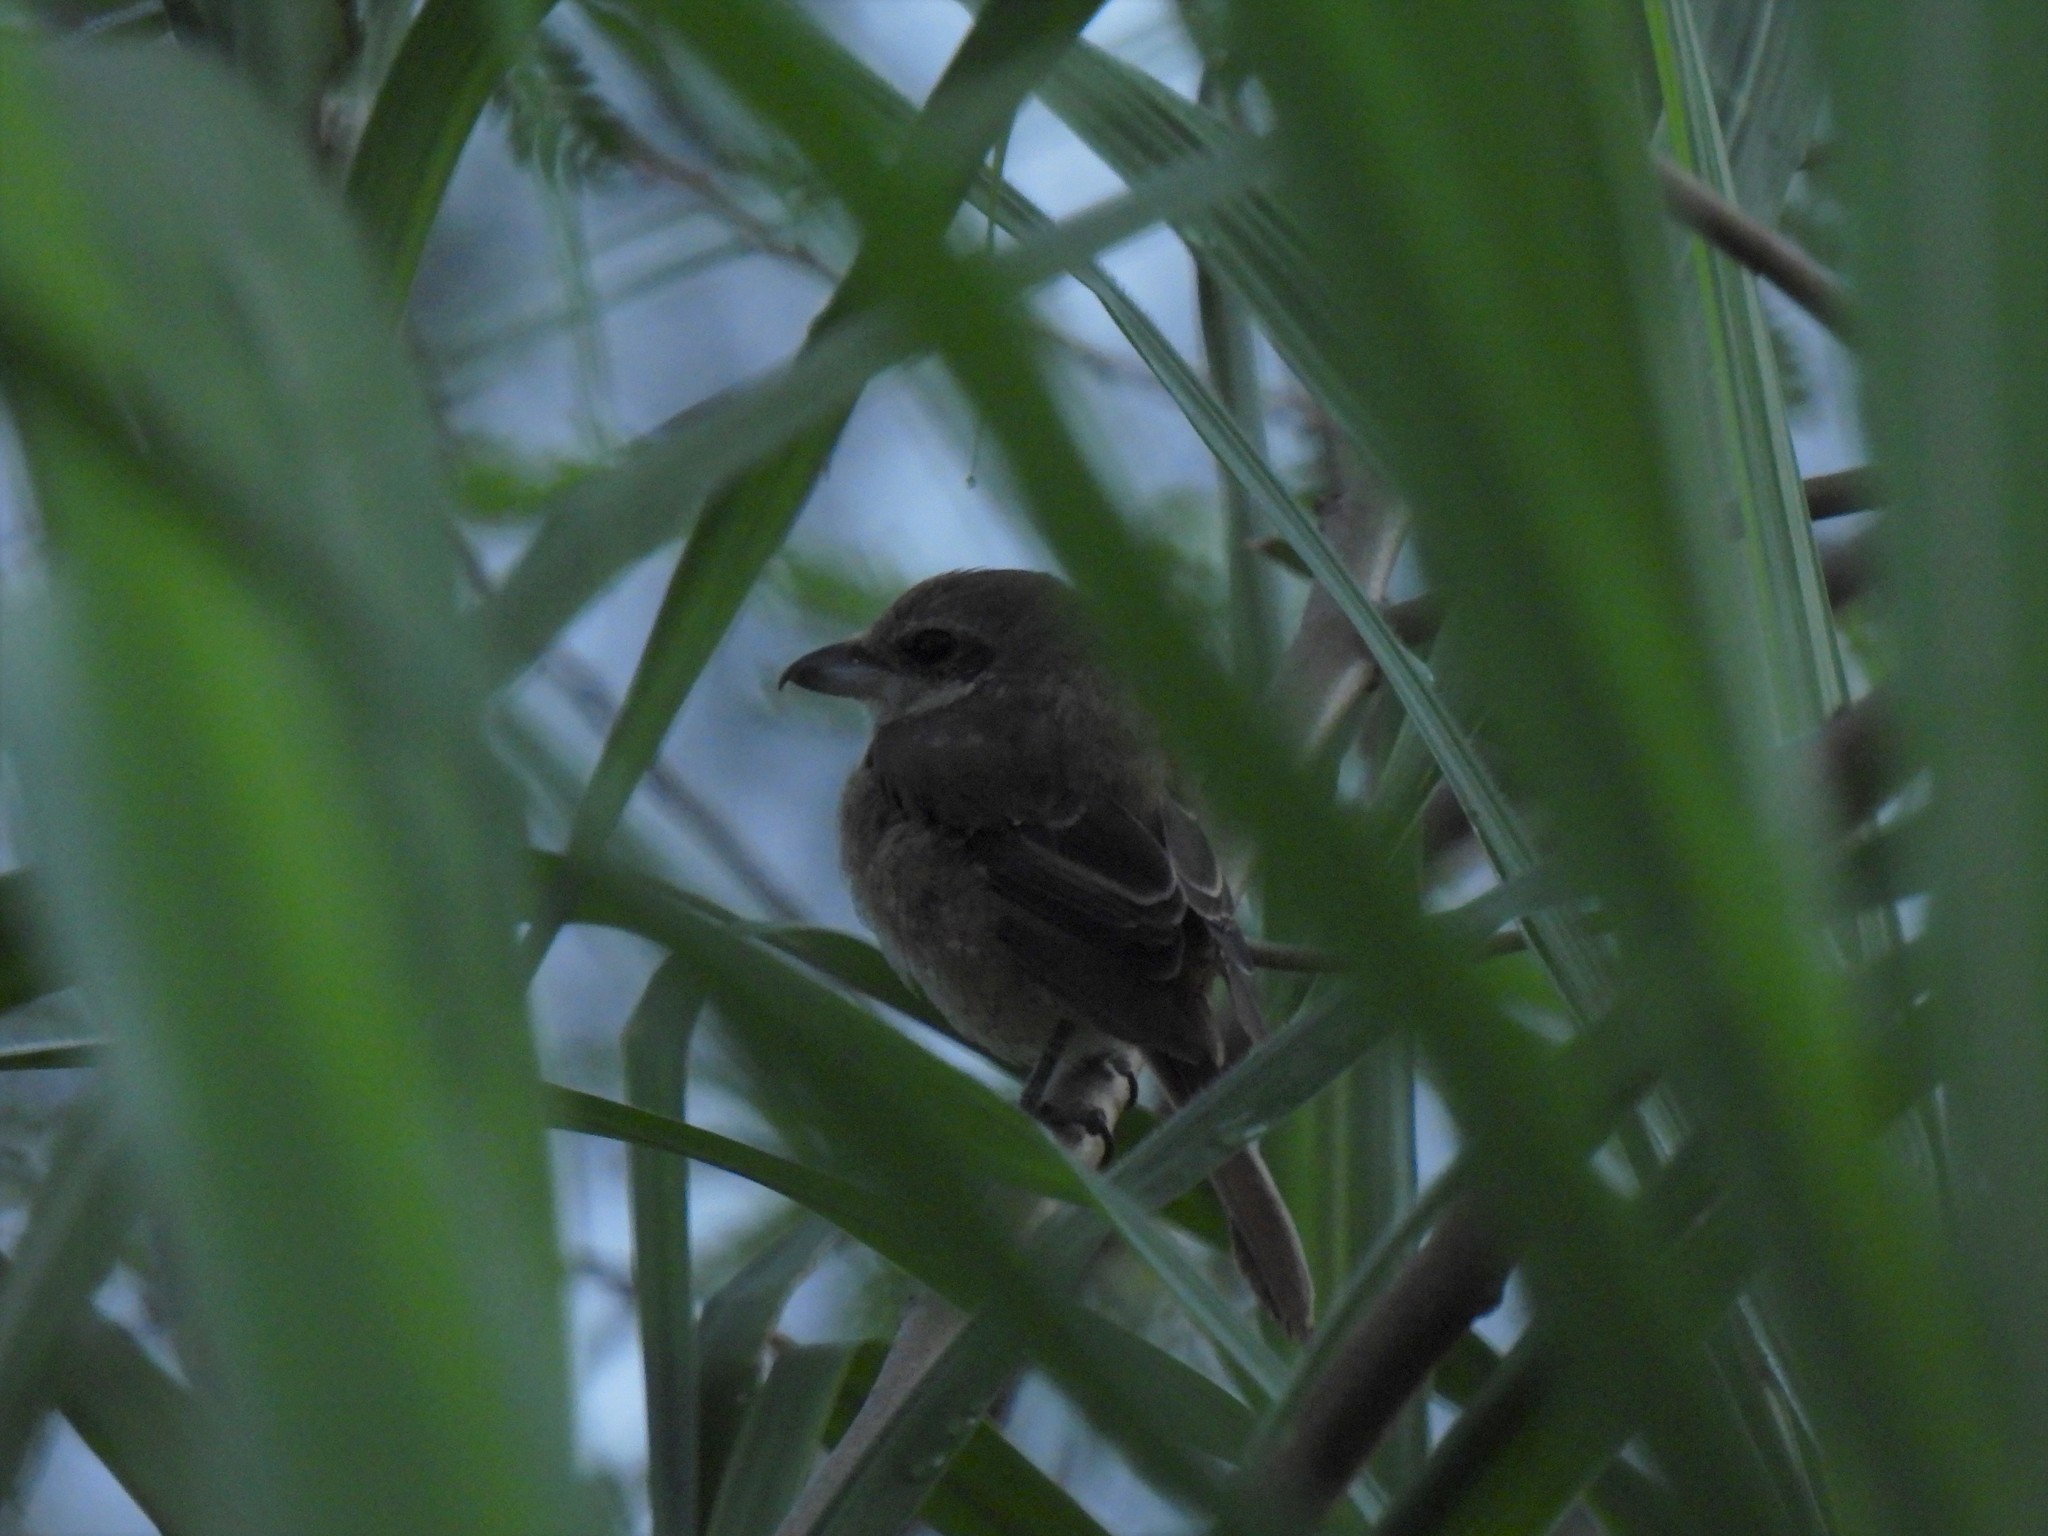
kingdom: Animalia
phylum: Chordata
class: Aves
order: Passeriformes
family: Laniidae
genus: Lanius
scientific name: Lanius cristatus
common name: Brown shrike
